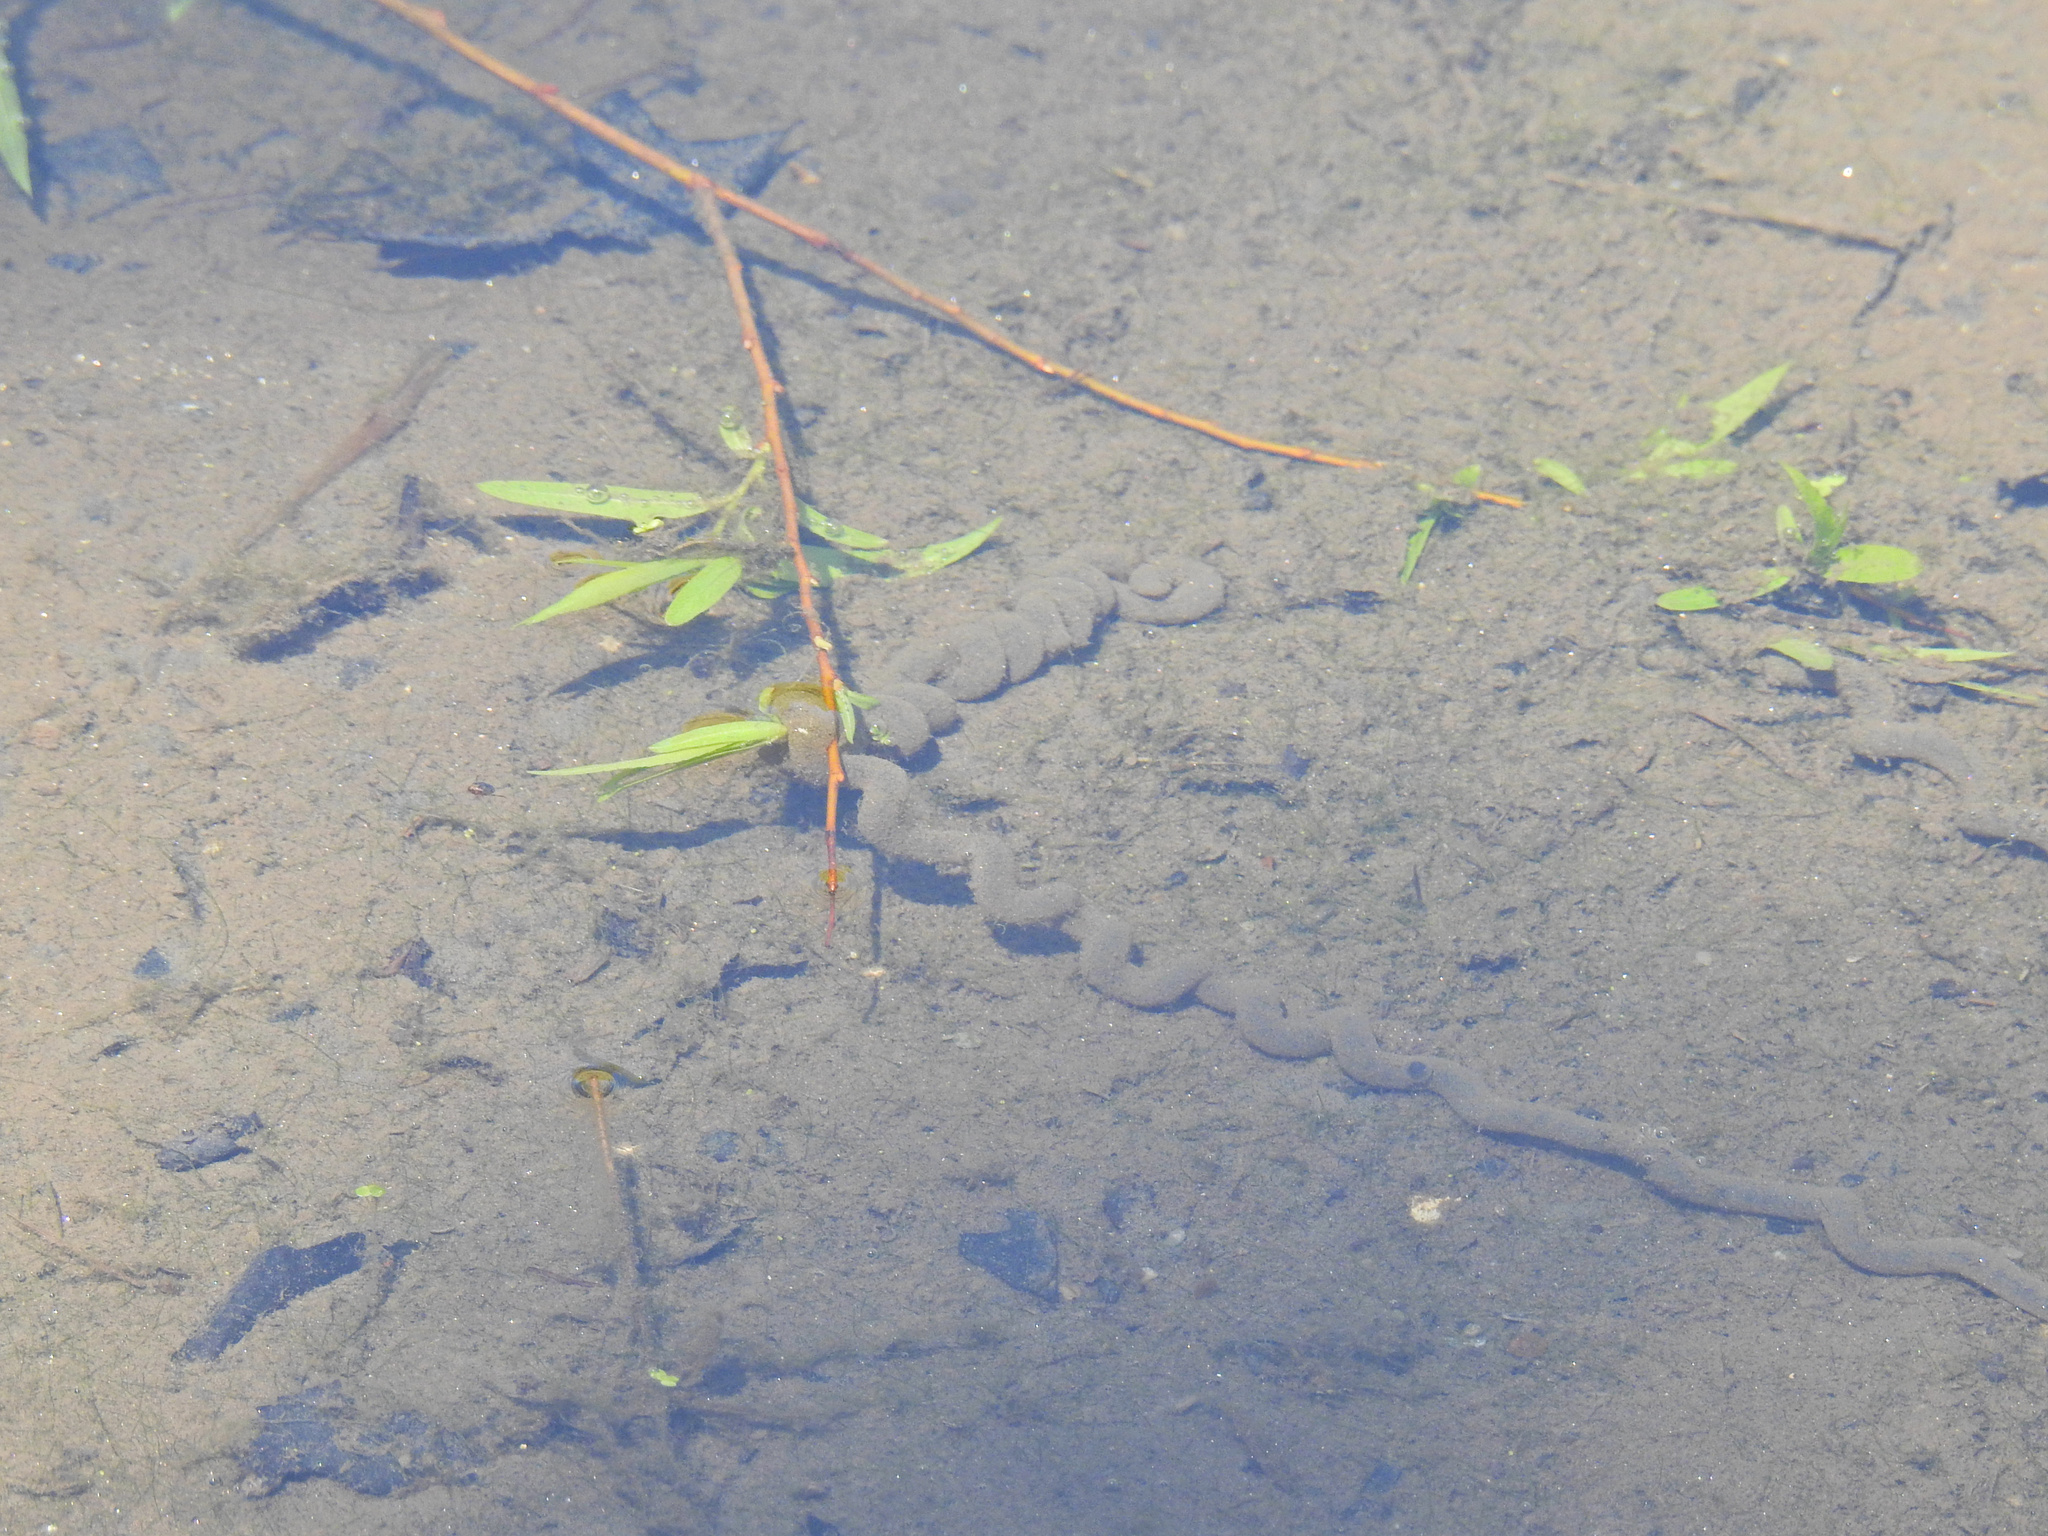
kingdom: Animalia
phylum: Chordata
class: Amphibia
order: Anura
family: Bufonidae
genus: Anaxyrus
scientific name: Anaxyrus americanus
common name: American toad
